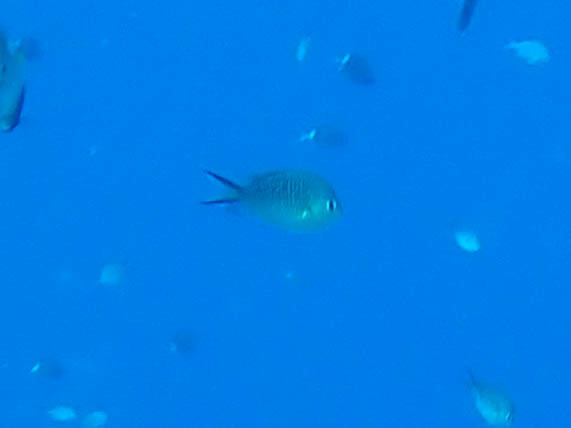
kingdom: Animalia
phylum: Chordata
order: Perciformes
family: Pomacentridae
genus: Chromis
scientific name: Chromis ternatensis
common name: Ternate chromis
